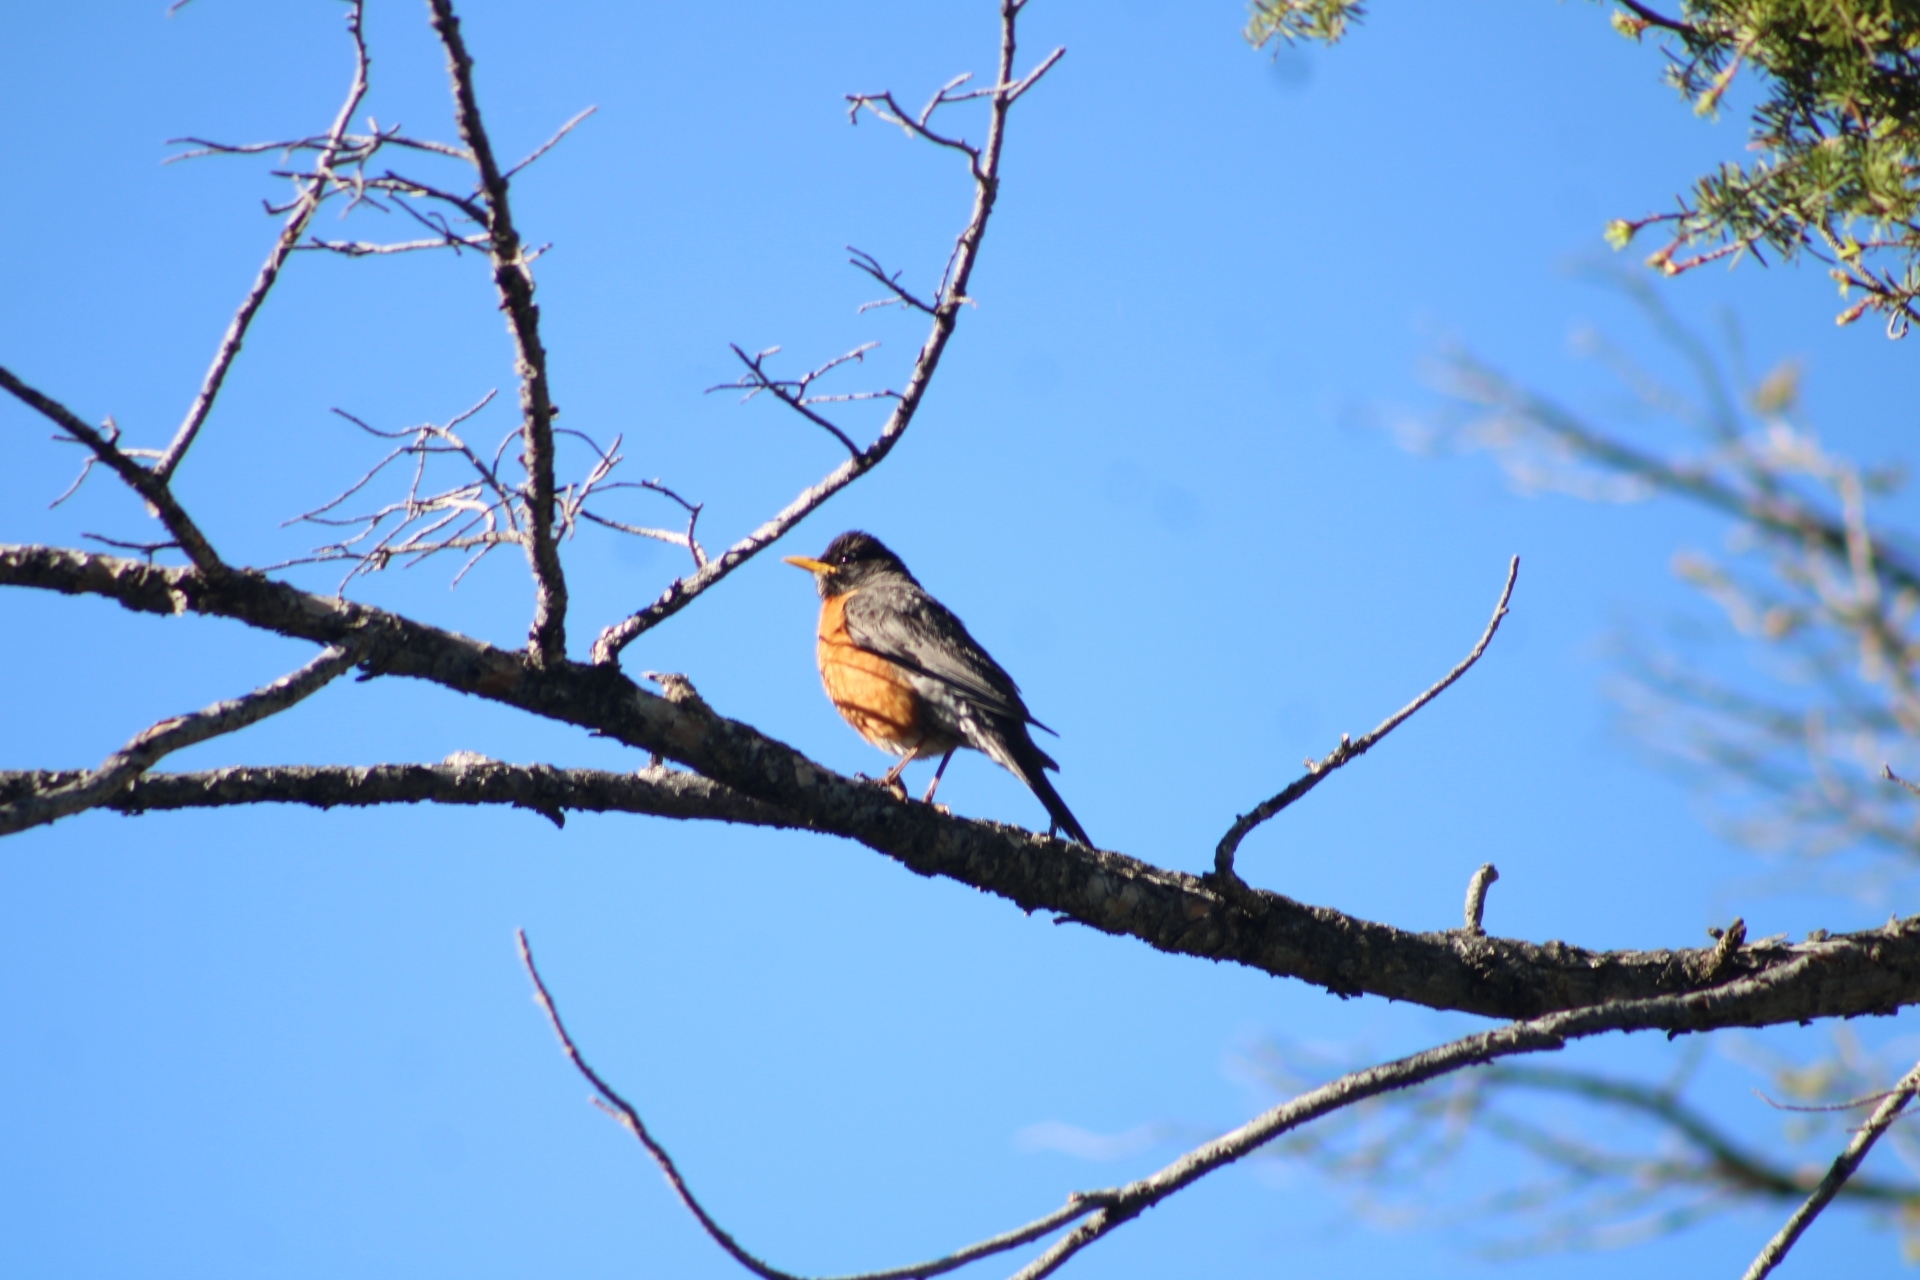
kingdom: Animalia
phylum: Chordata
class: Aves
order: Passeriformes
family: Turdidae
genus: Turdus
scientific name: Turdus migratorius
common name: American robin
